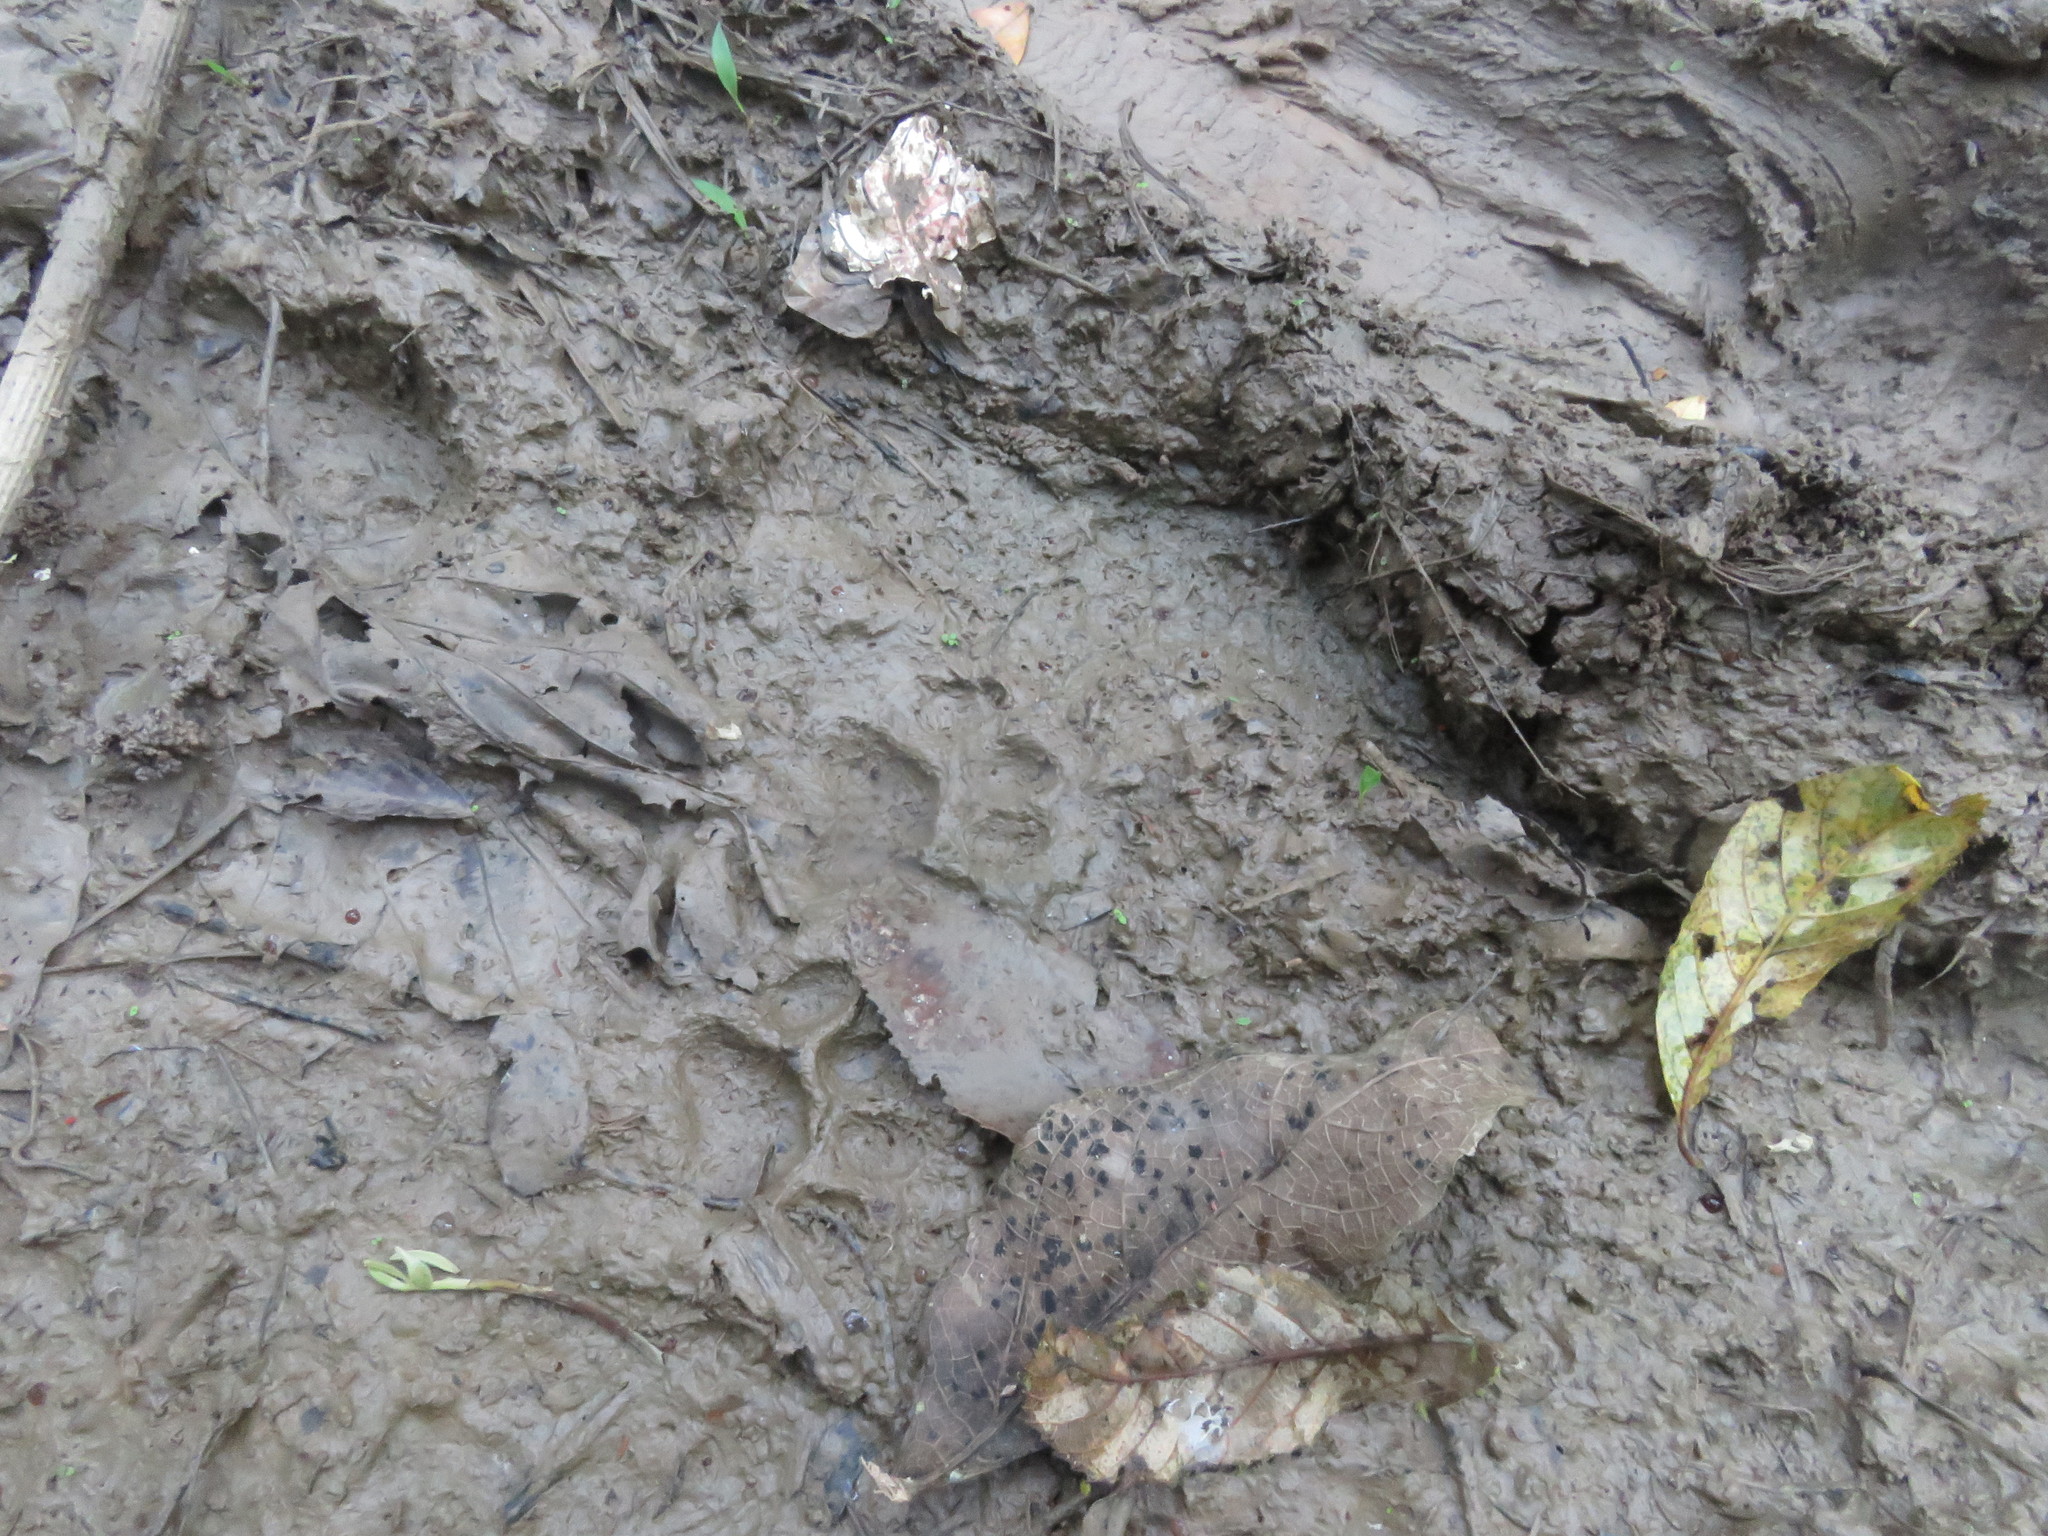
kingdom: Animalia
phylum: Chordata
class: Mammalia
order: Carnivora
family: Felidae
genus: Leopardus
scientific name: Leopardus pardalis
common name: Ocelot
